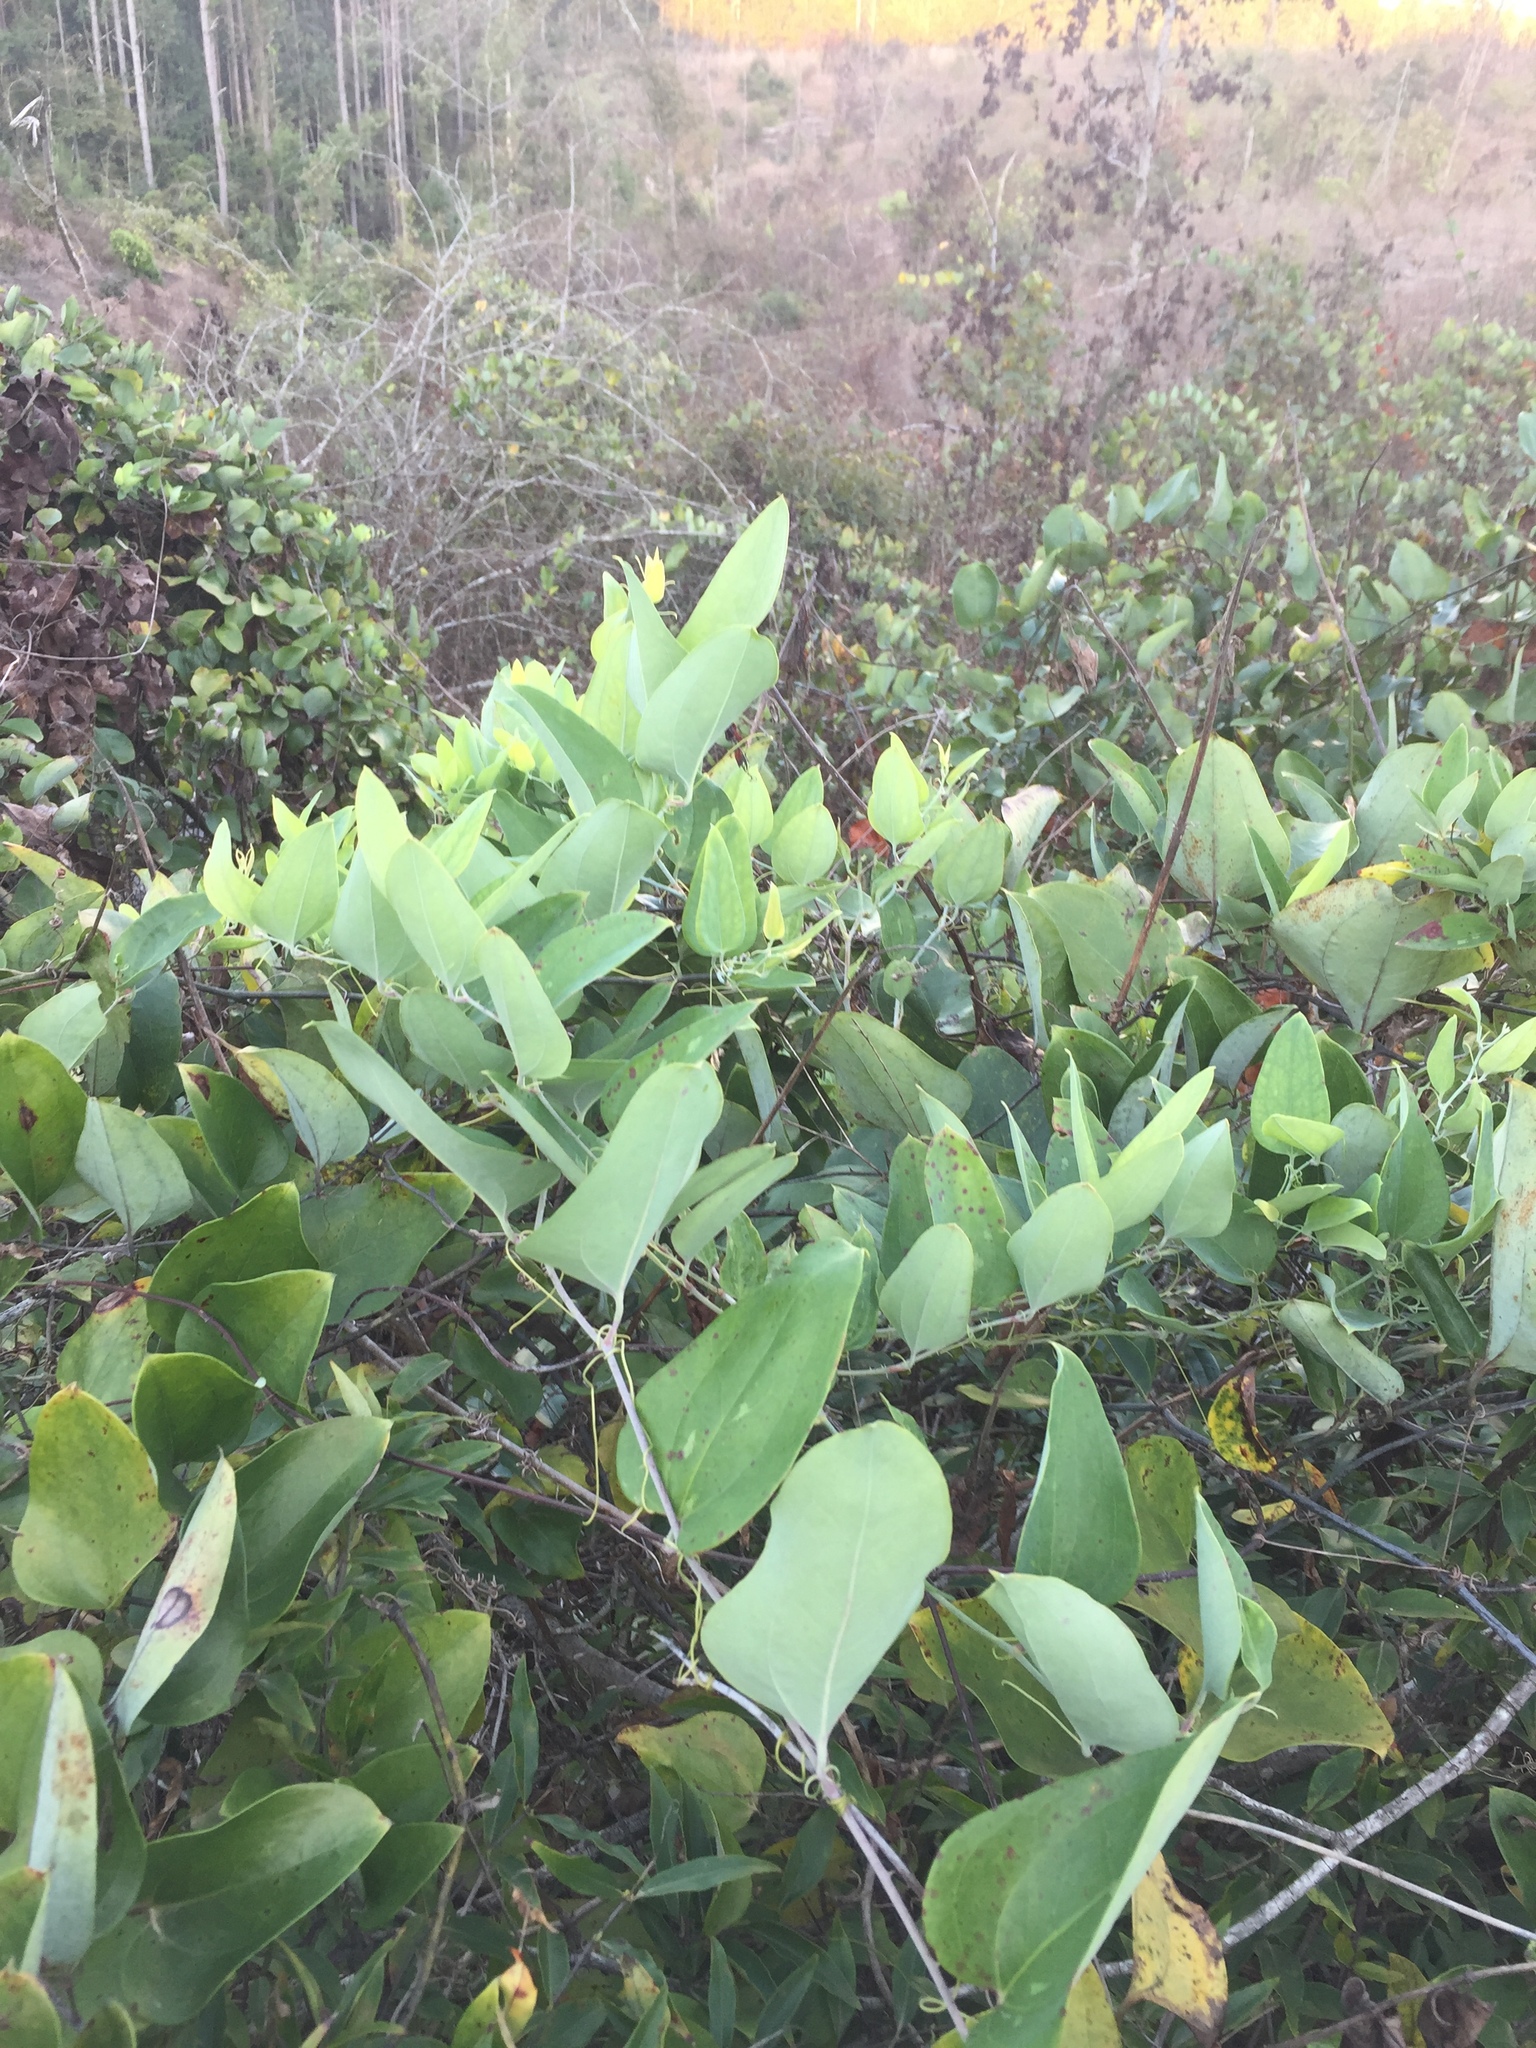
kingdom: Plantae
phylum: Tracheophyta
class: Liliopsida
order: Liliales
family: Smilacaceae
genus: Smilax
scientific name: Smilax glauca
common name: Cat greenbrier
